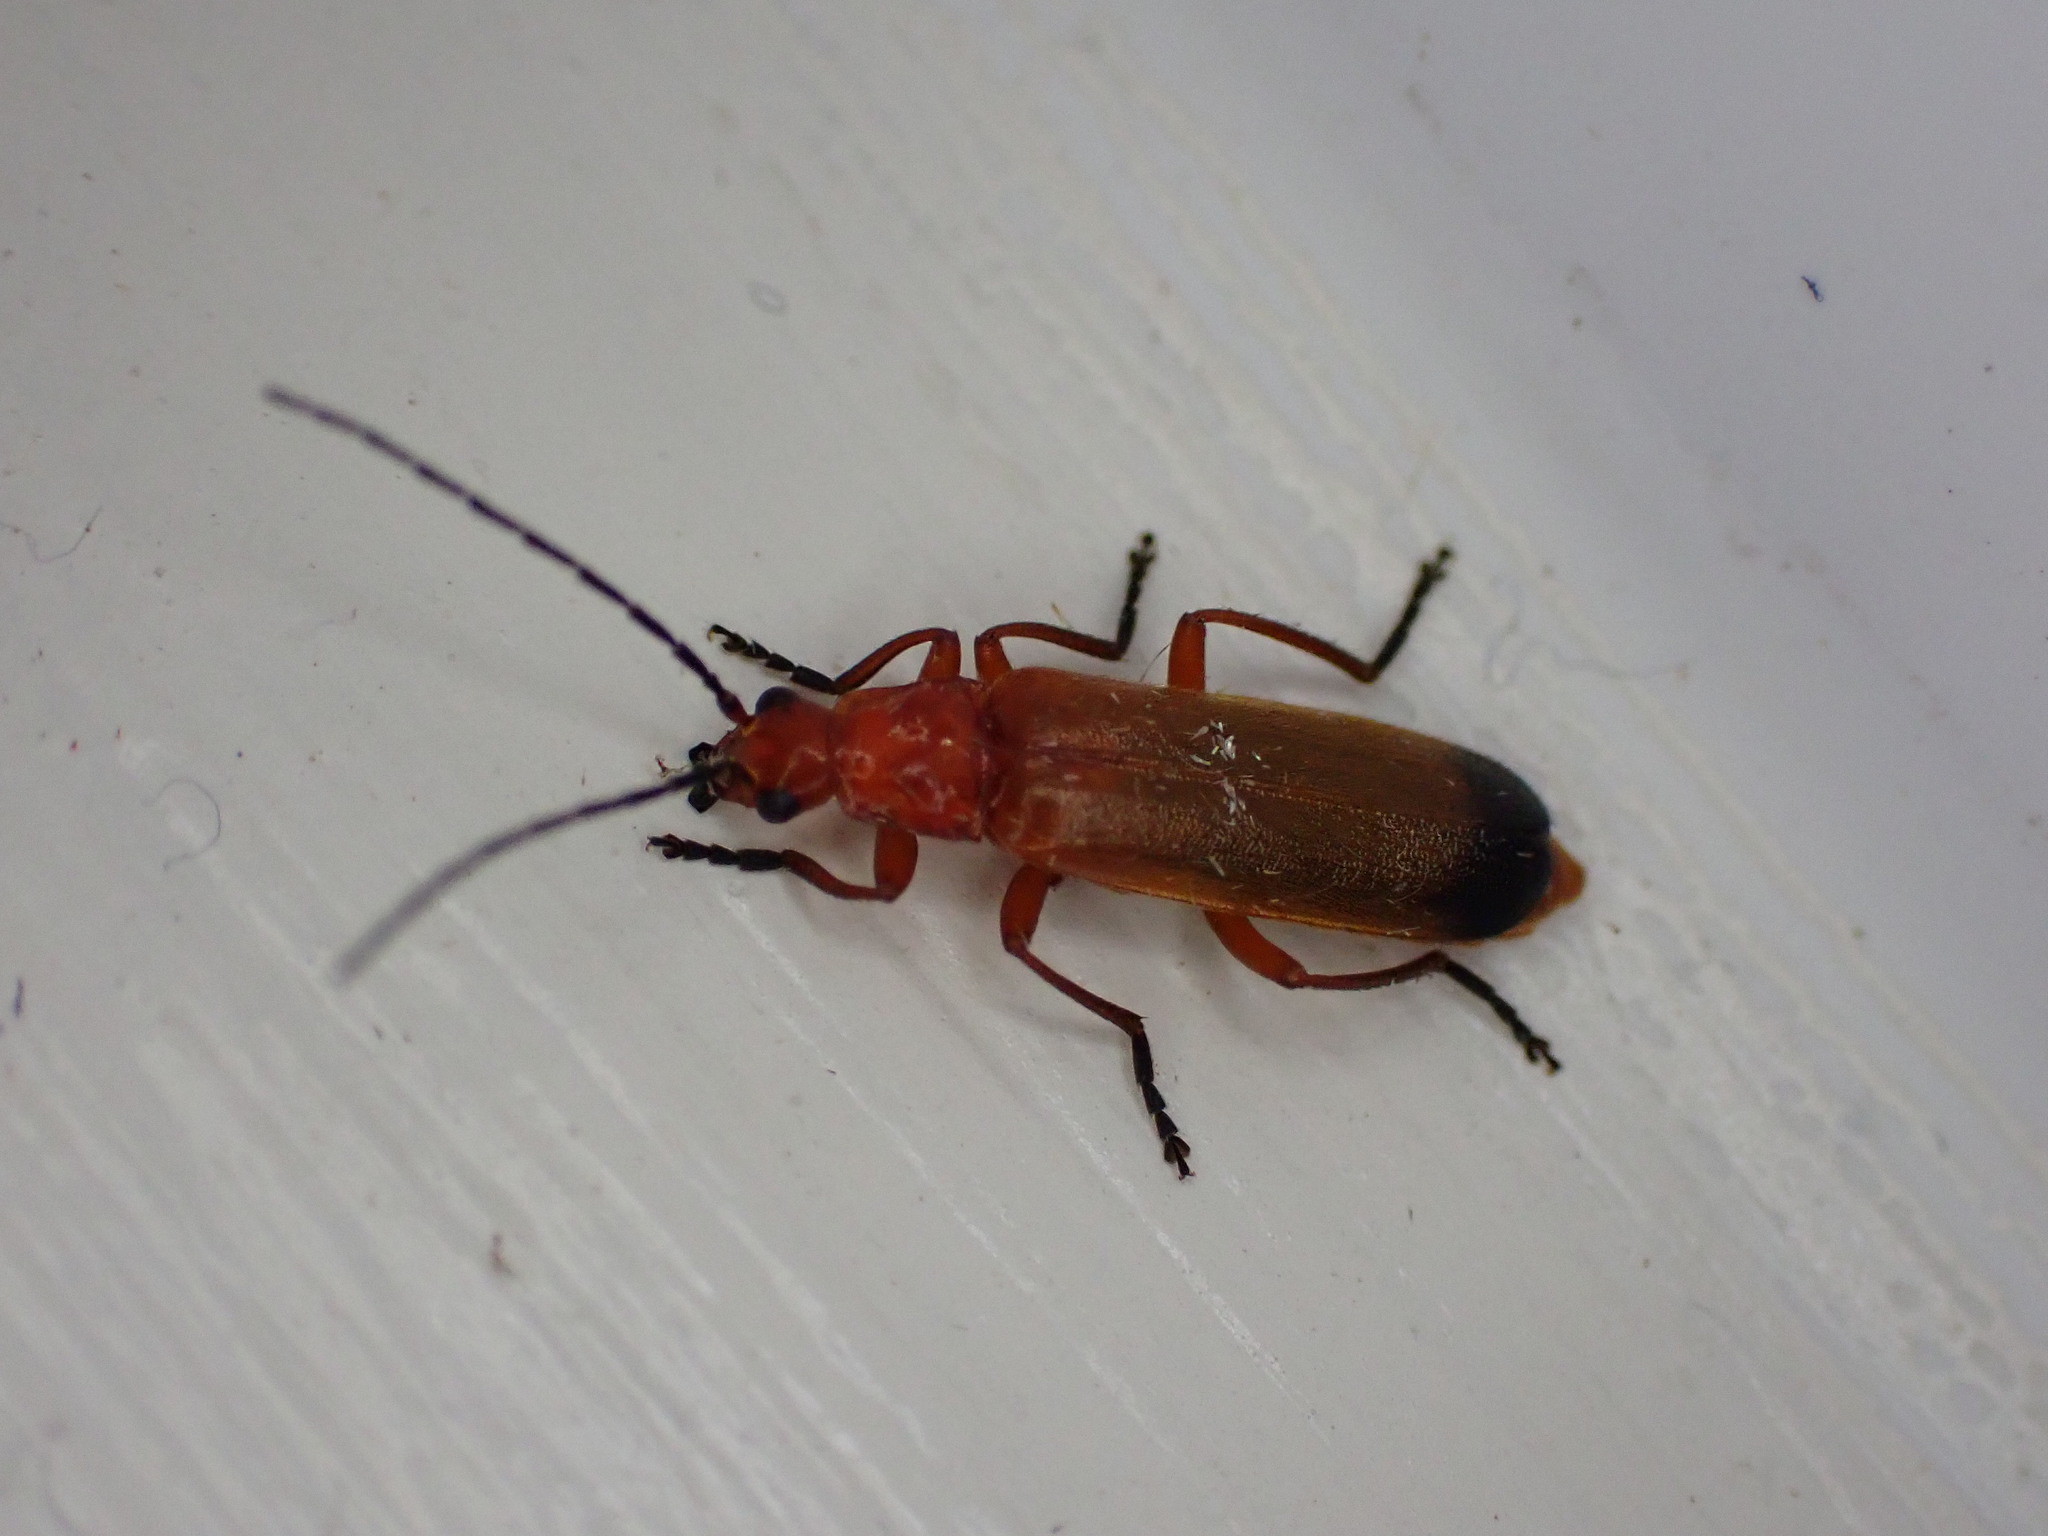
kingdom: Animalia
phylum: Arthropoda
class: Insecta
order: Coleoptera
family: Cantharidae
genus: Rhagonycha
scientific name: Rhagonycha fulva
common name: Common red soldier beetle
